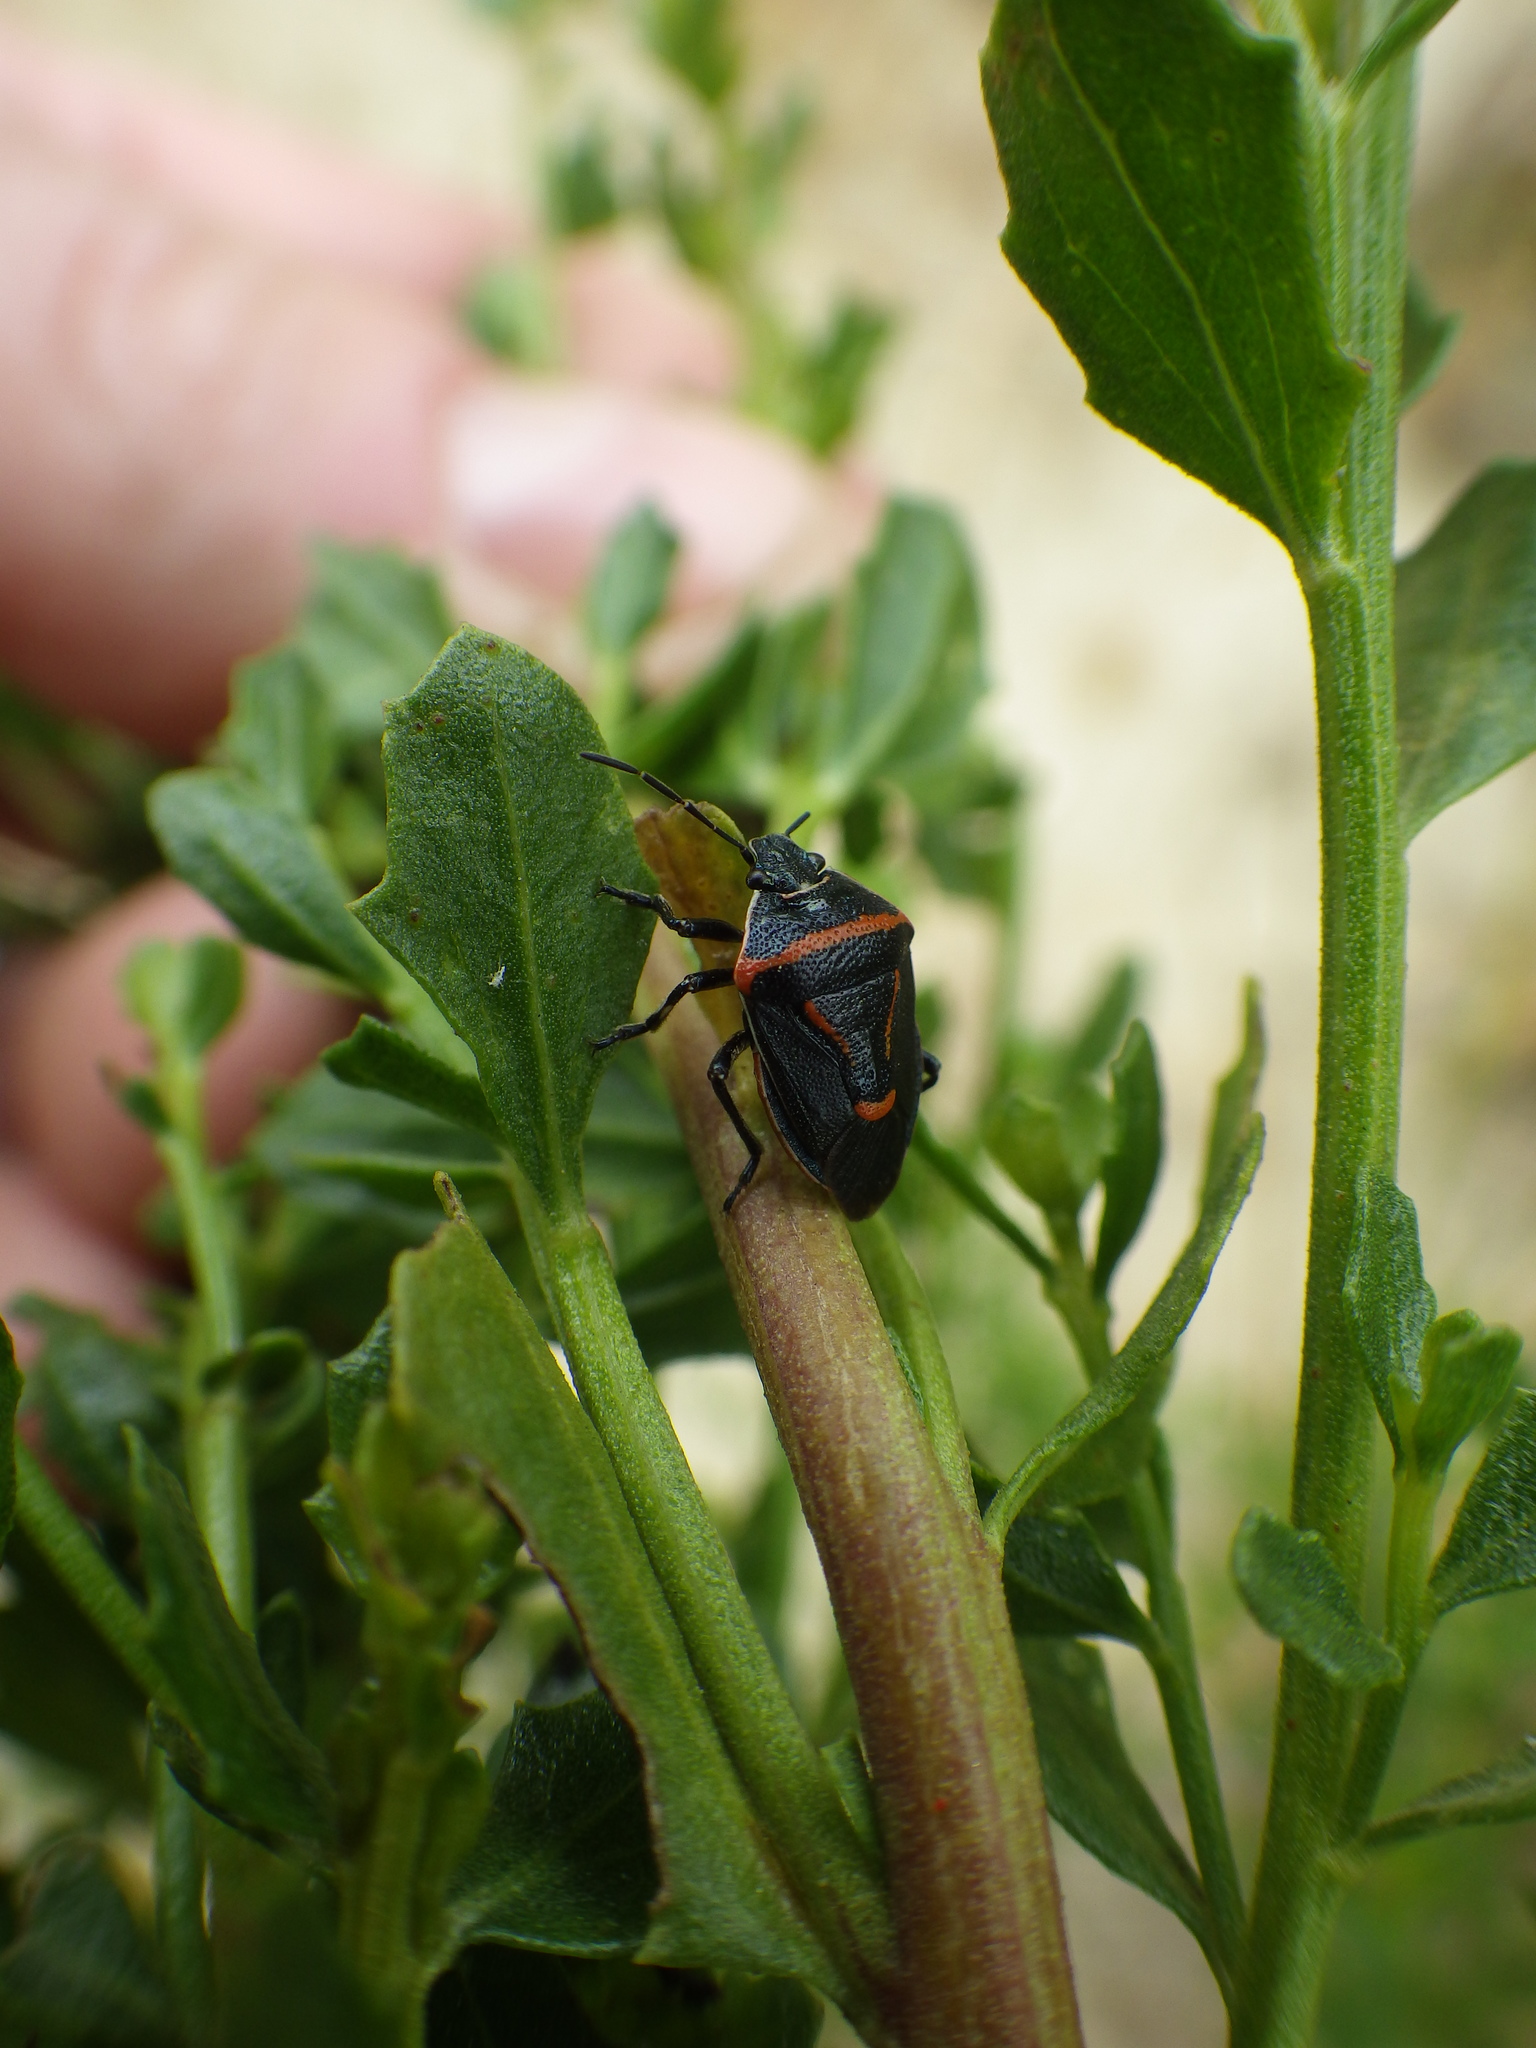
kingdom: Animalia
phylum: Arthropoda
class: Insecta
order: Hemiptera
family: Pentatomidae
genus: Perillus
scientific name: Perillus splendidus
